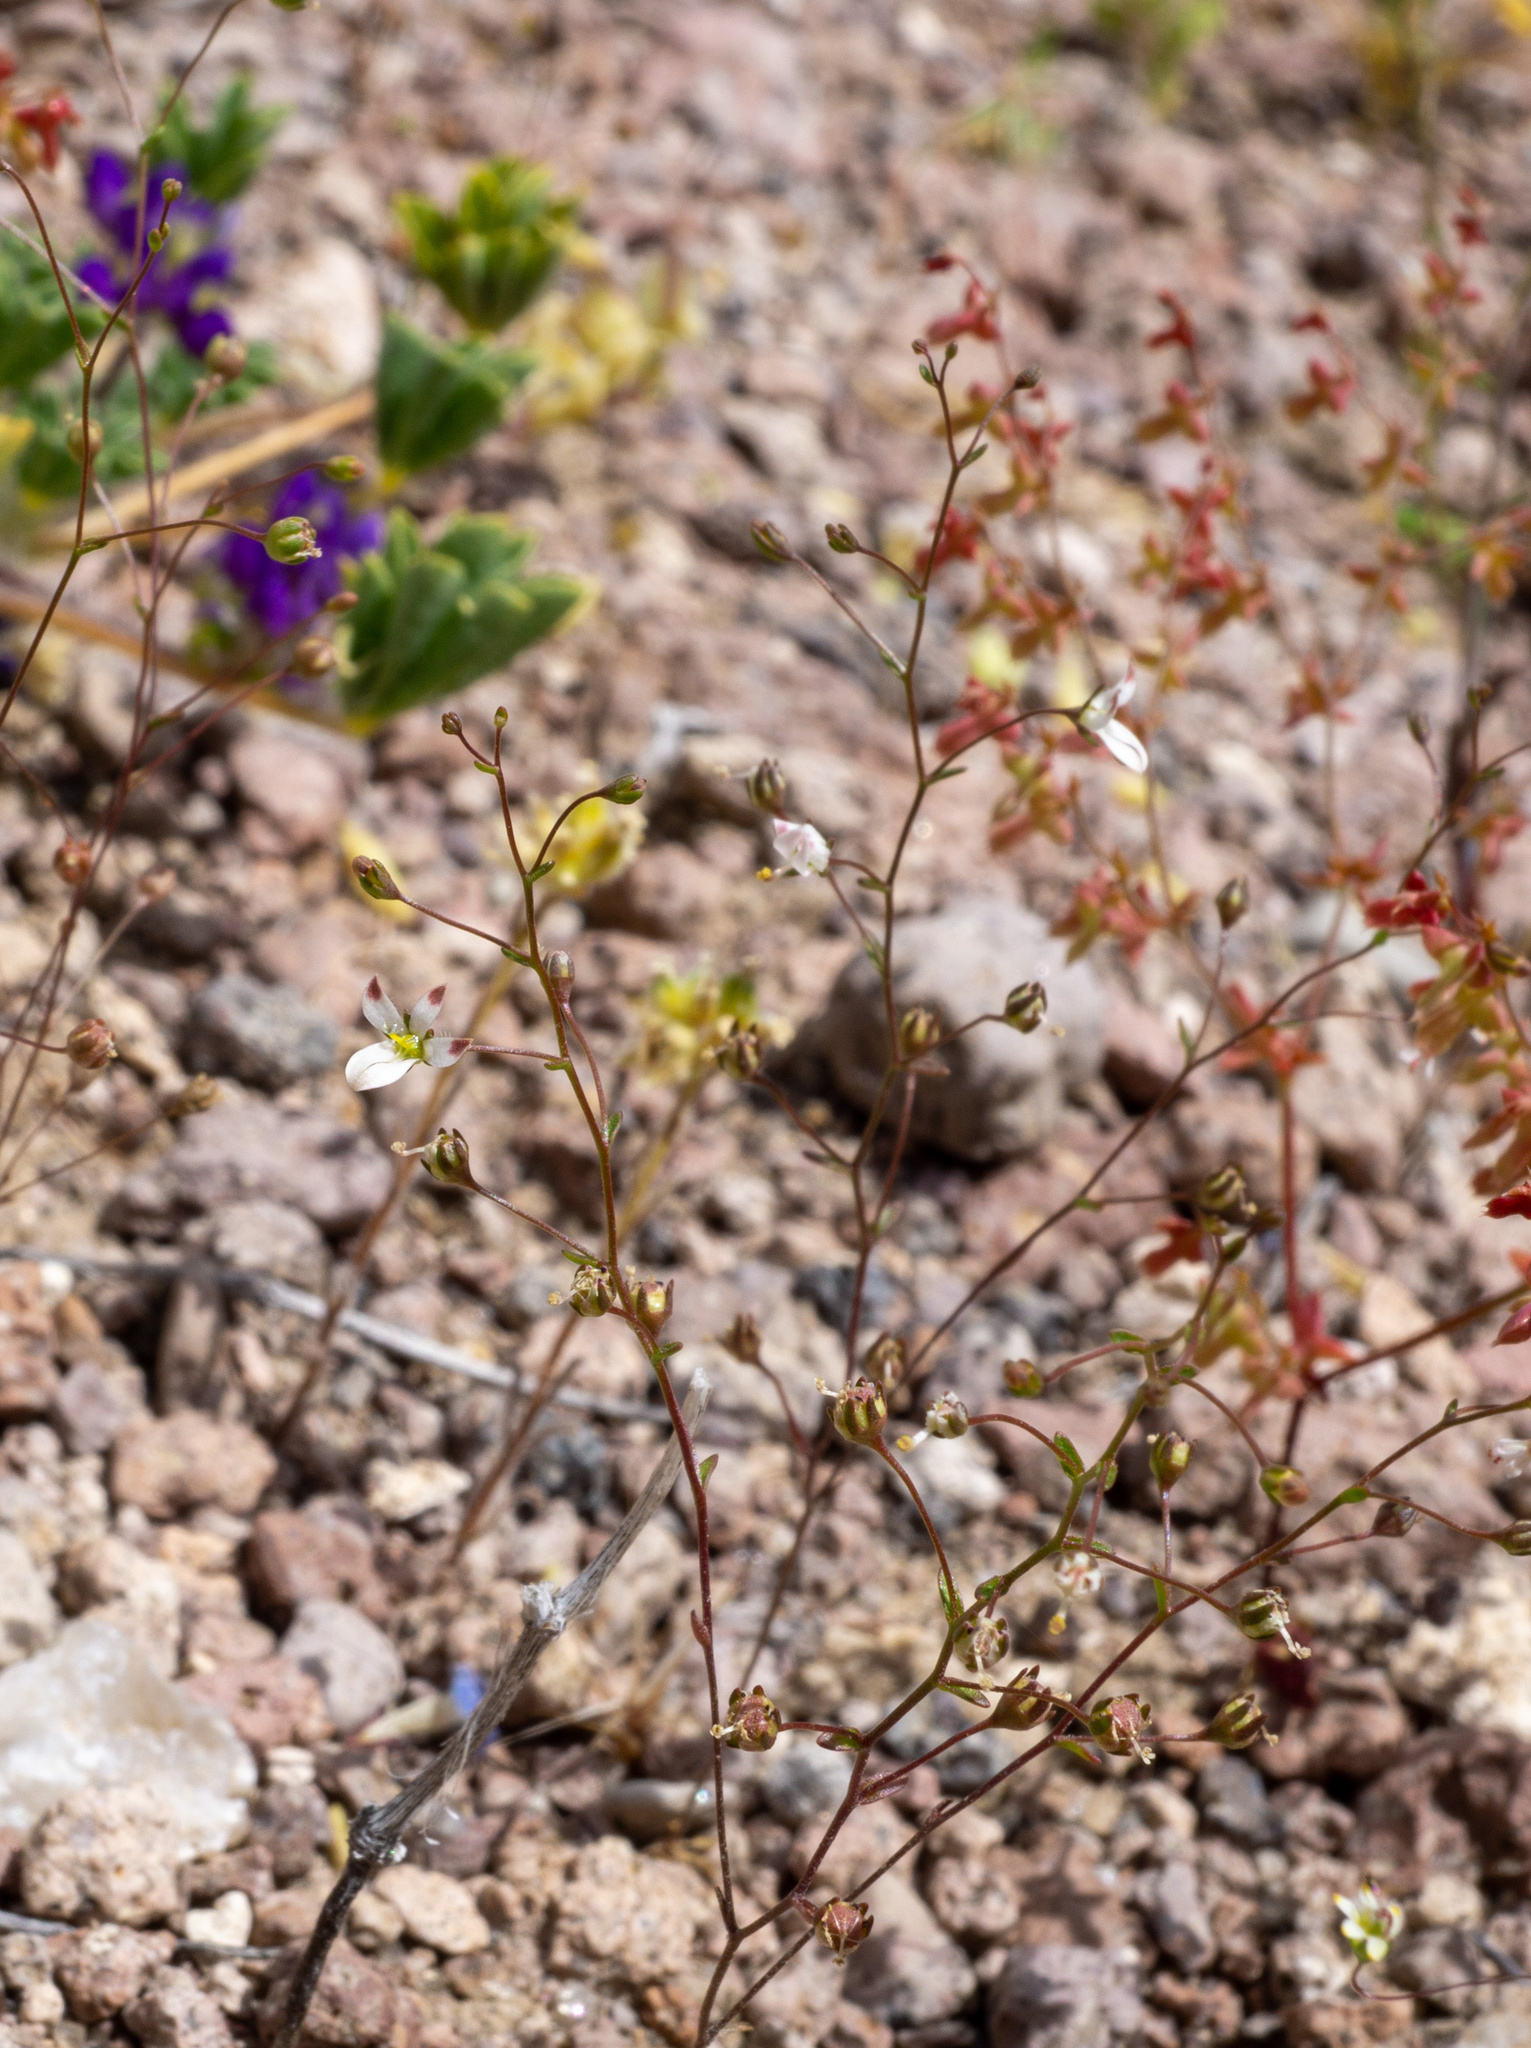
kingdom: Plantae
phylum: Tracheophyta
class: Magnoliopsida
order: Asterales
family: Campanulaceae
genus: Nemacladus
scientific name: Nemacladus orientalis
